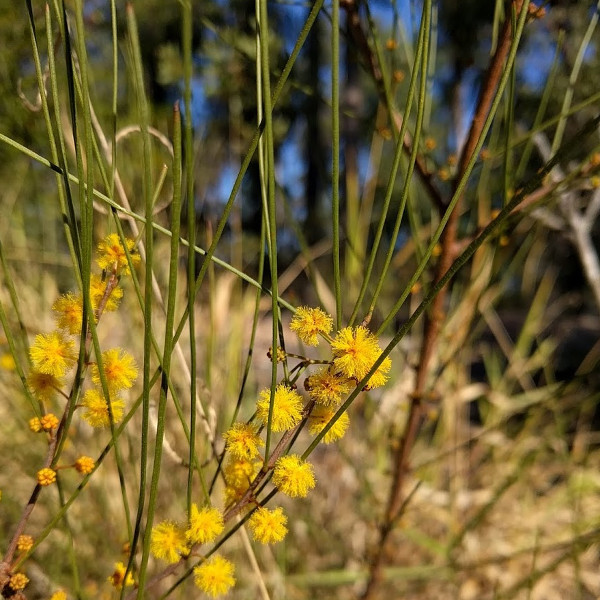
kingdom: Plantae
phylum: Tracheophyta
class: Magnoliopsida
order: Fabales
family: Fabaceae
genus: Acacia
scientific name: Acacia juncifolia
